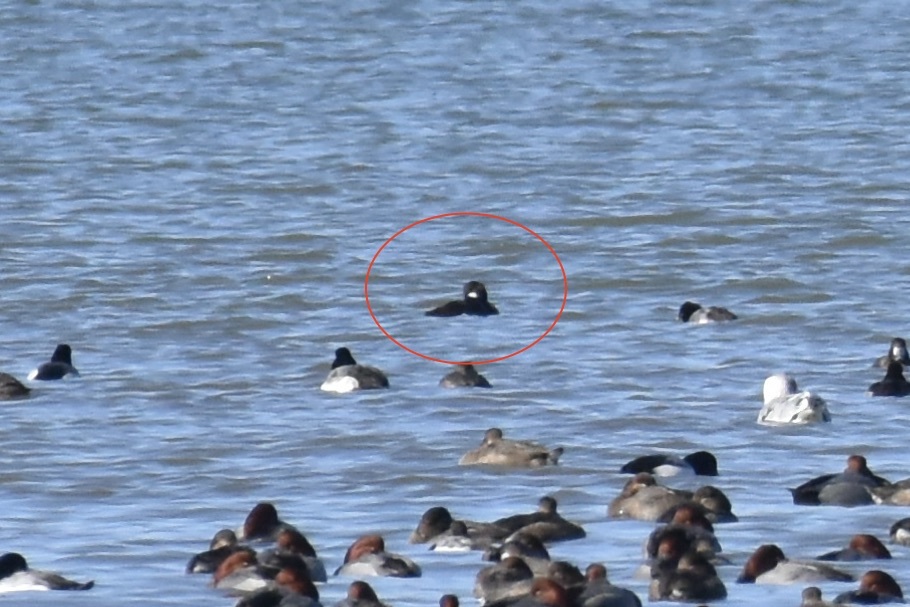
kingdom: Animalia
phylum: Chordata
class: Aves
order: Anseriformes
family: Anatidae
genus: Bucephala
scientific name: Bucephala albeola
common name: Bufflehead
